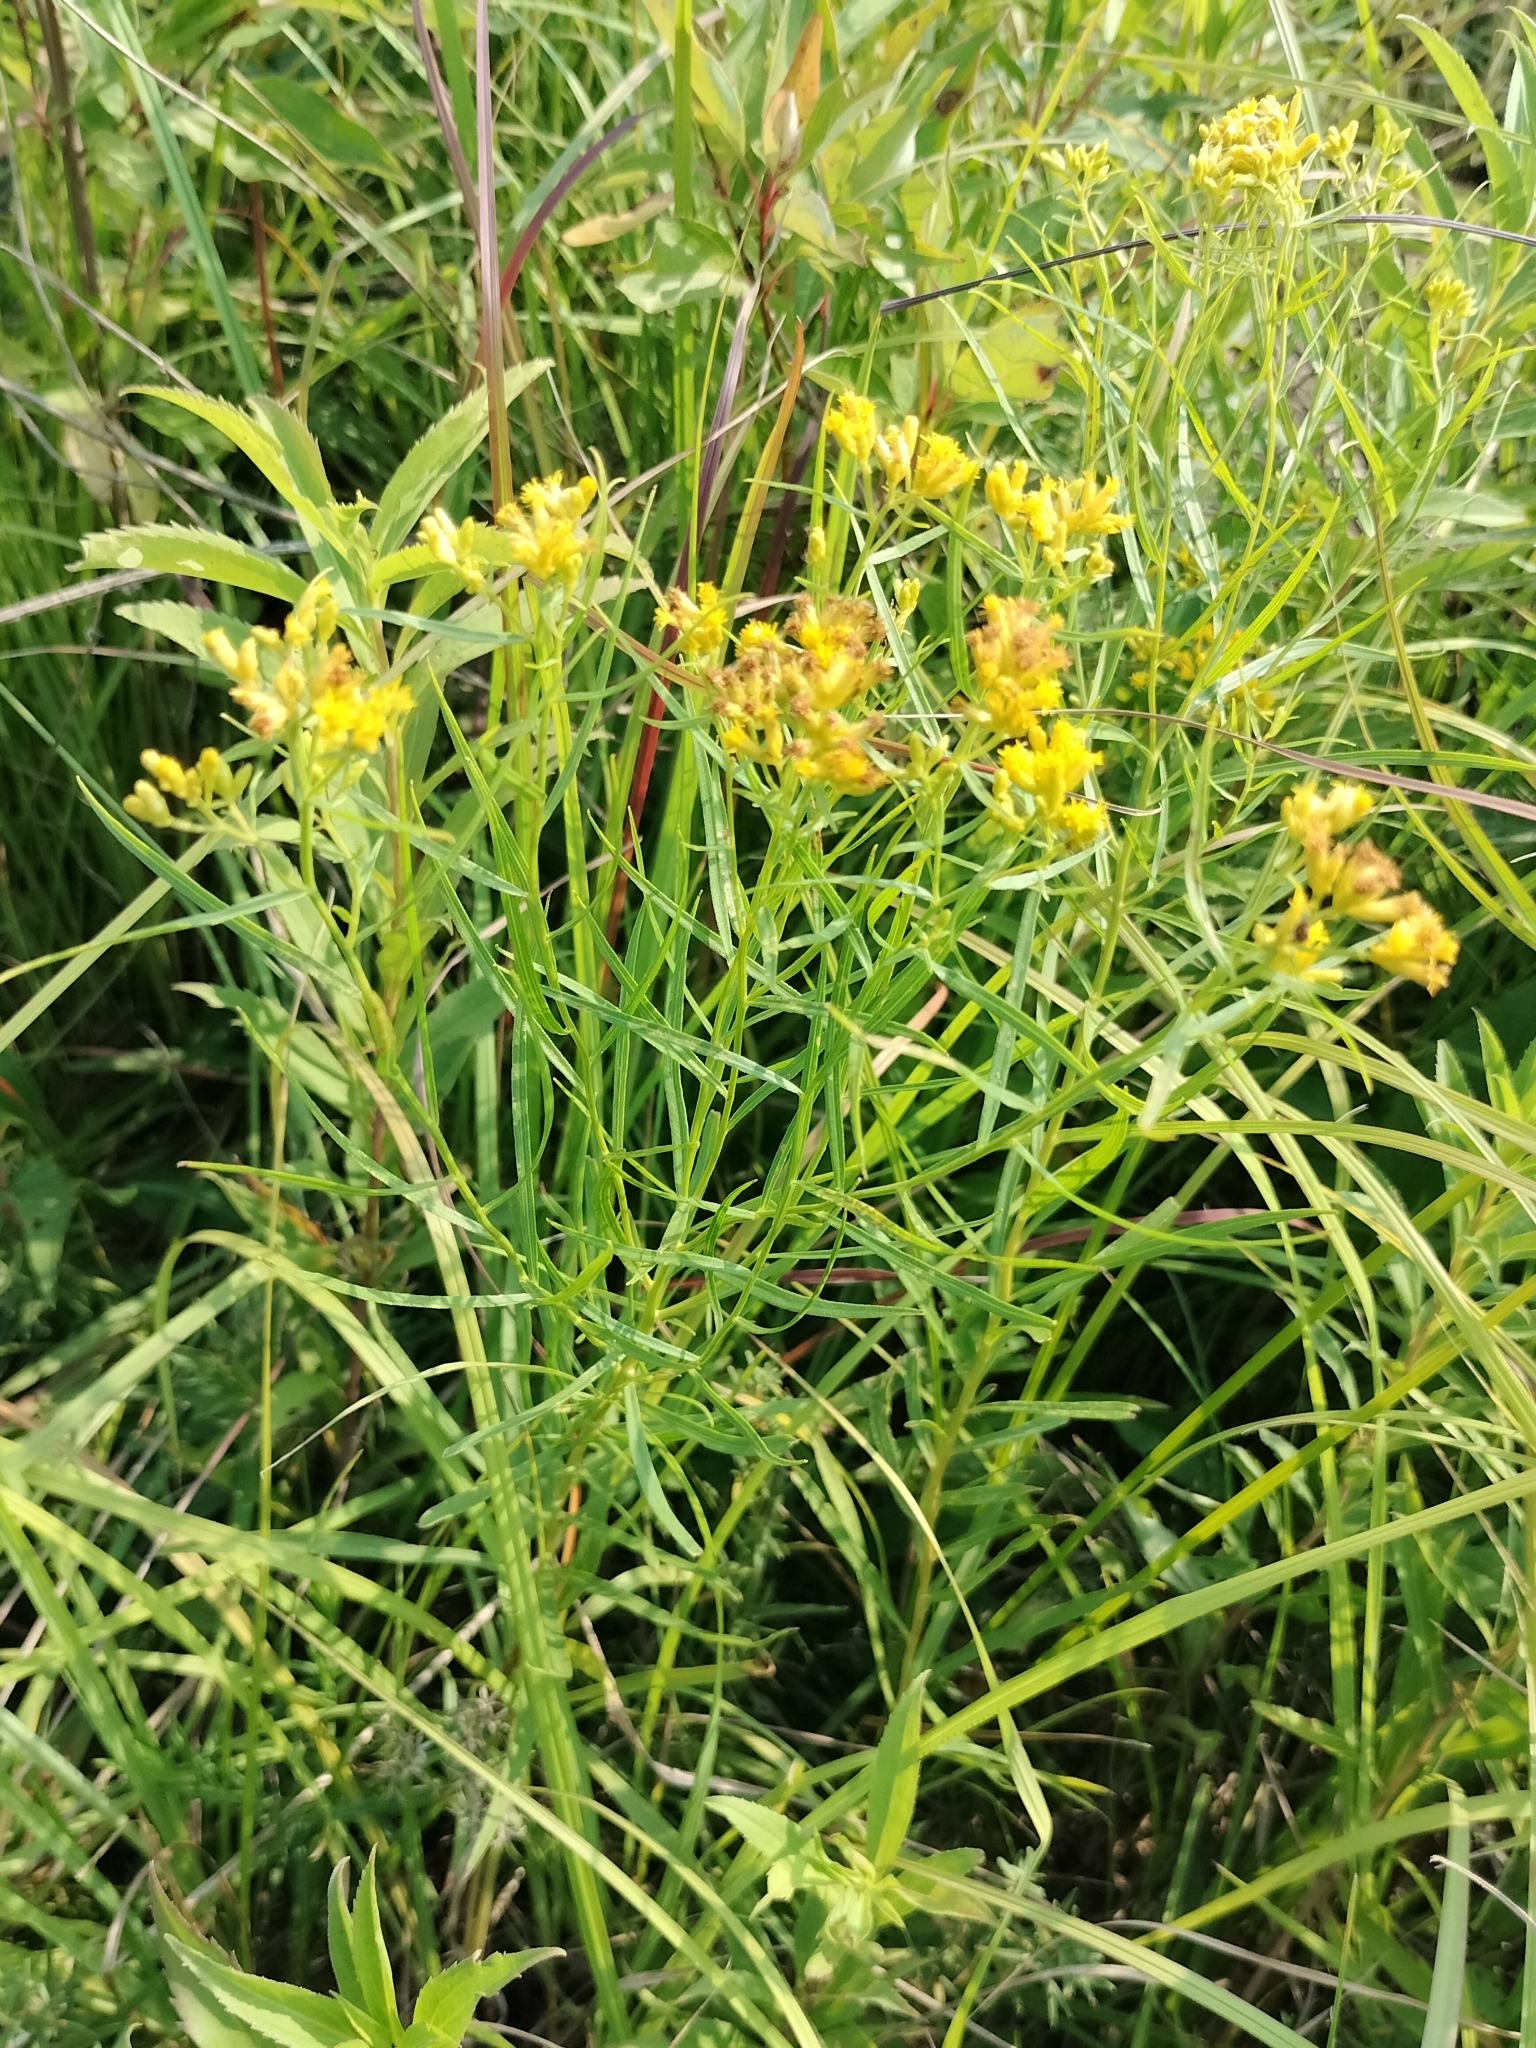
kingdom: Plantae
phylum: Tracheophyta
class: Magnoliopsida
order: Asterales
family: Asteraceae
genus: Euthamia
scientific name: Euthamia graminifolia
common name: Common goldentop
